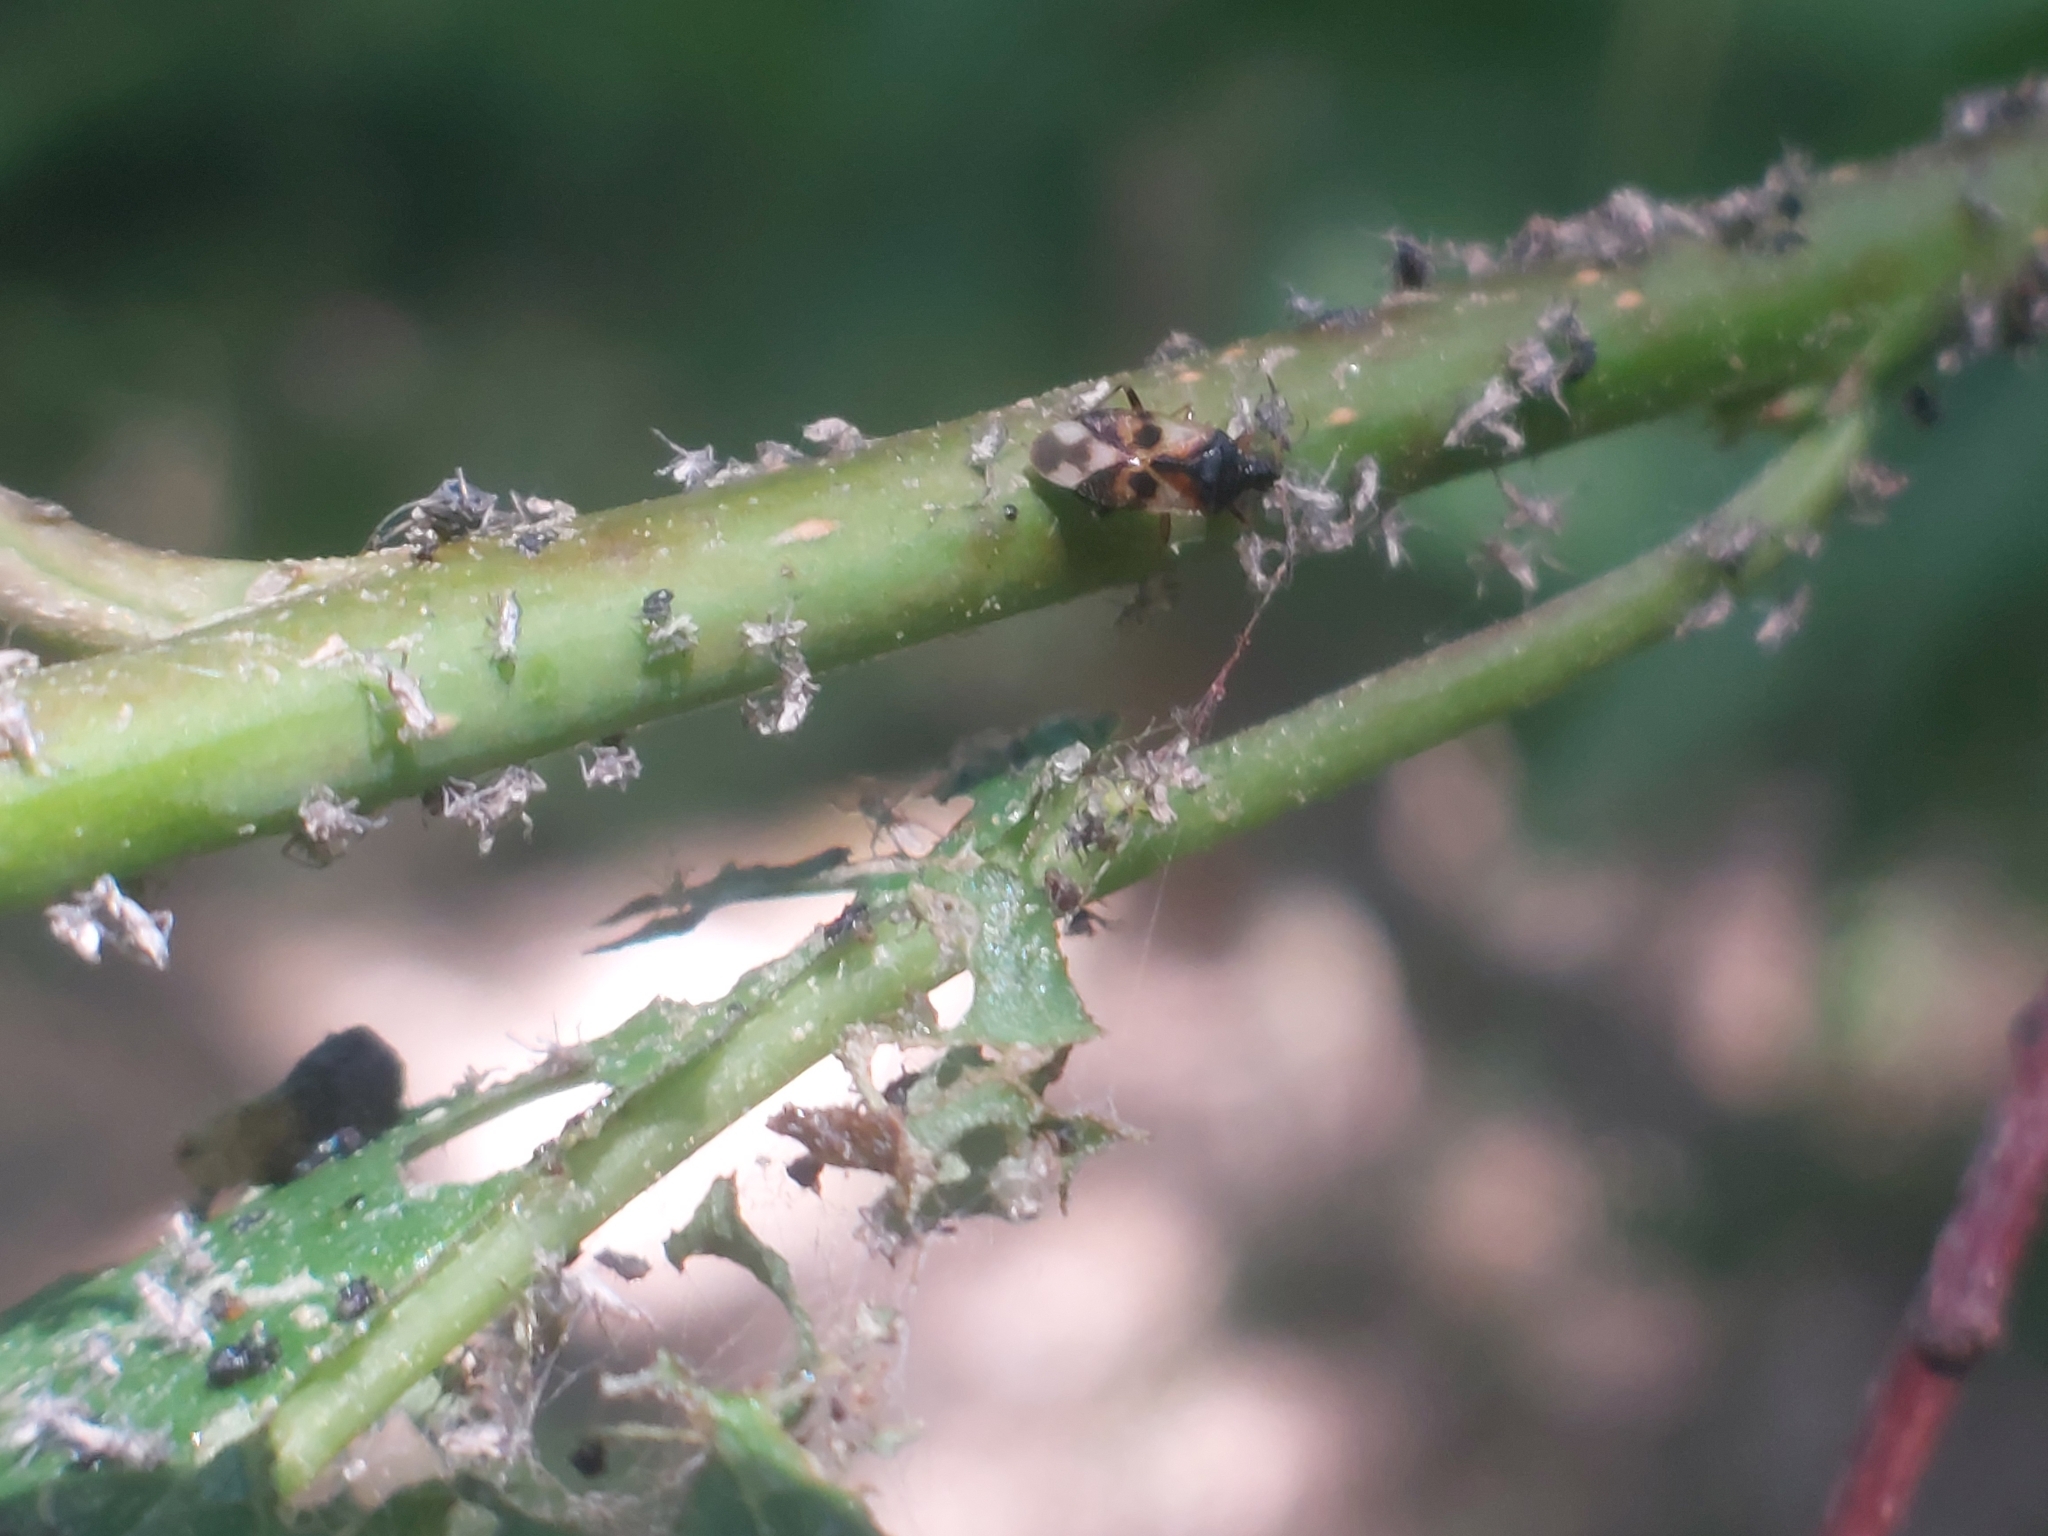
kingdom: Animalia
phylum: Arthropoda
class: Insecta
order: Hemiptera
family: Anthocoridae
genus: Anthocoris
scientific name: Anthocoris nemorum
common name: Minute pirate bug
